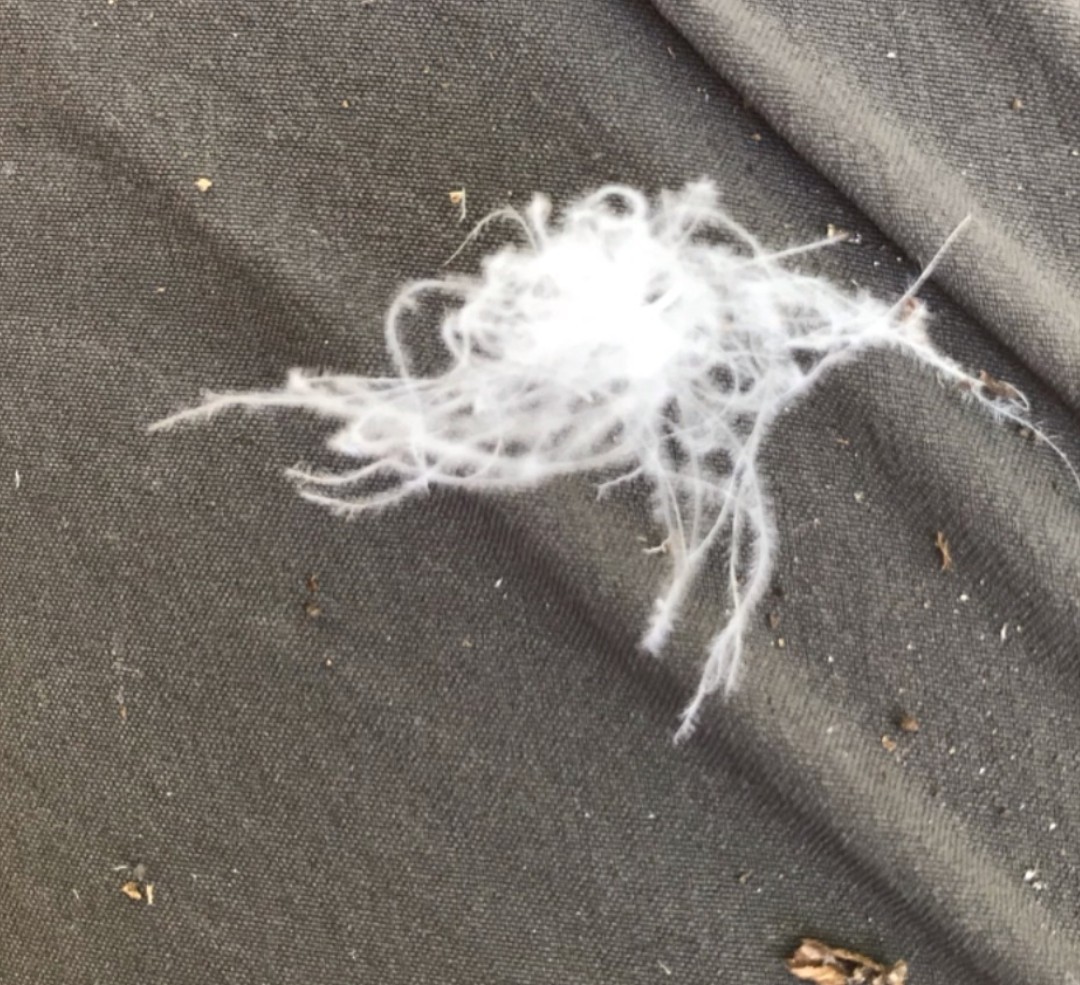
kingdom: Animalia
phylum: Chordata
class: Aves
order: Suliformes
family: Sulidae
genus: Morus
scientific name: Morus serrator
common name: Australasian gannet
